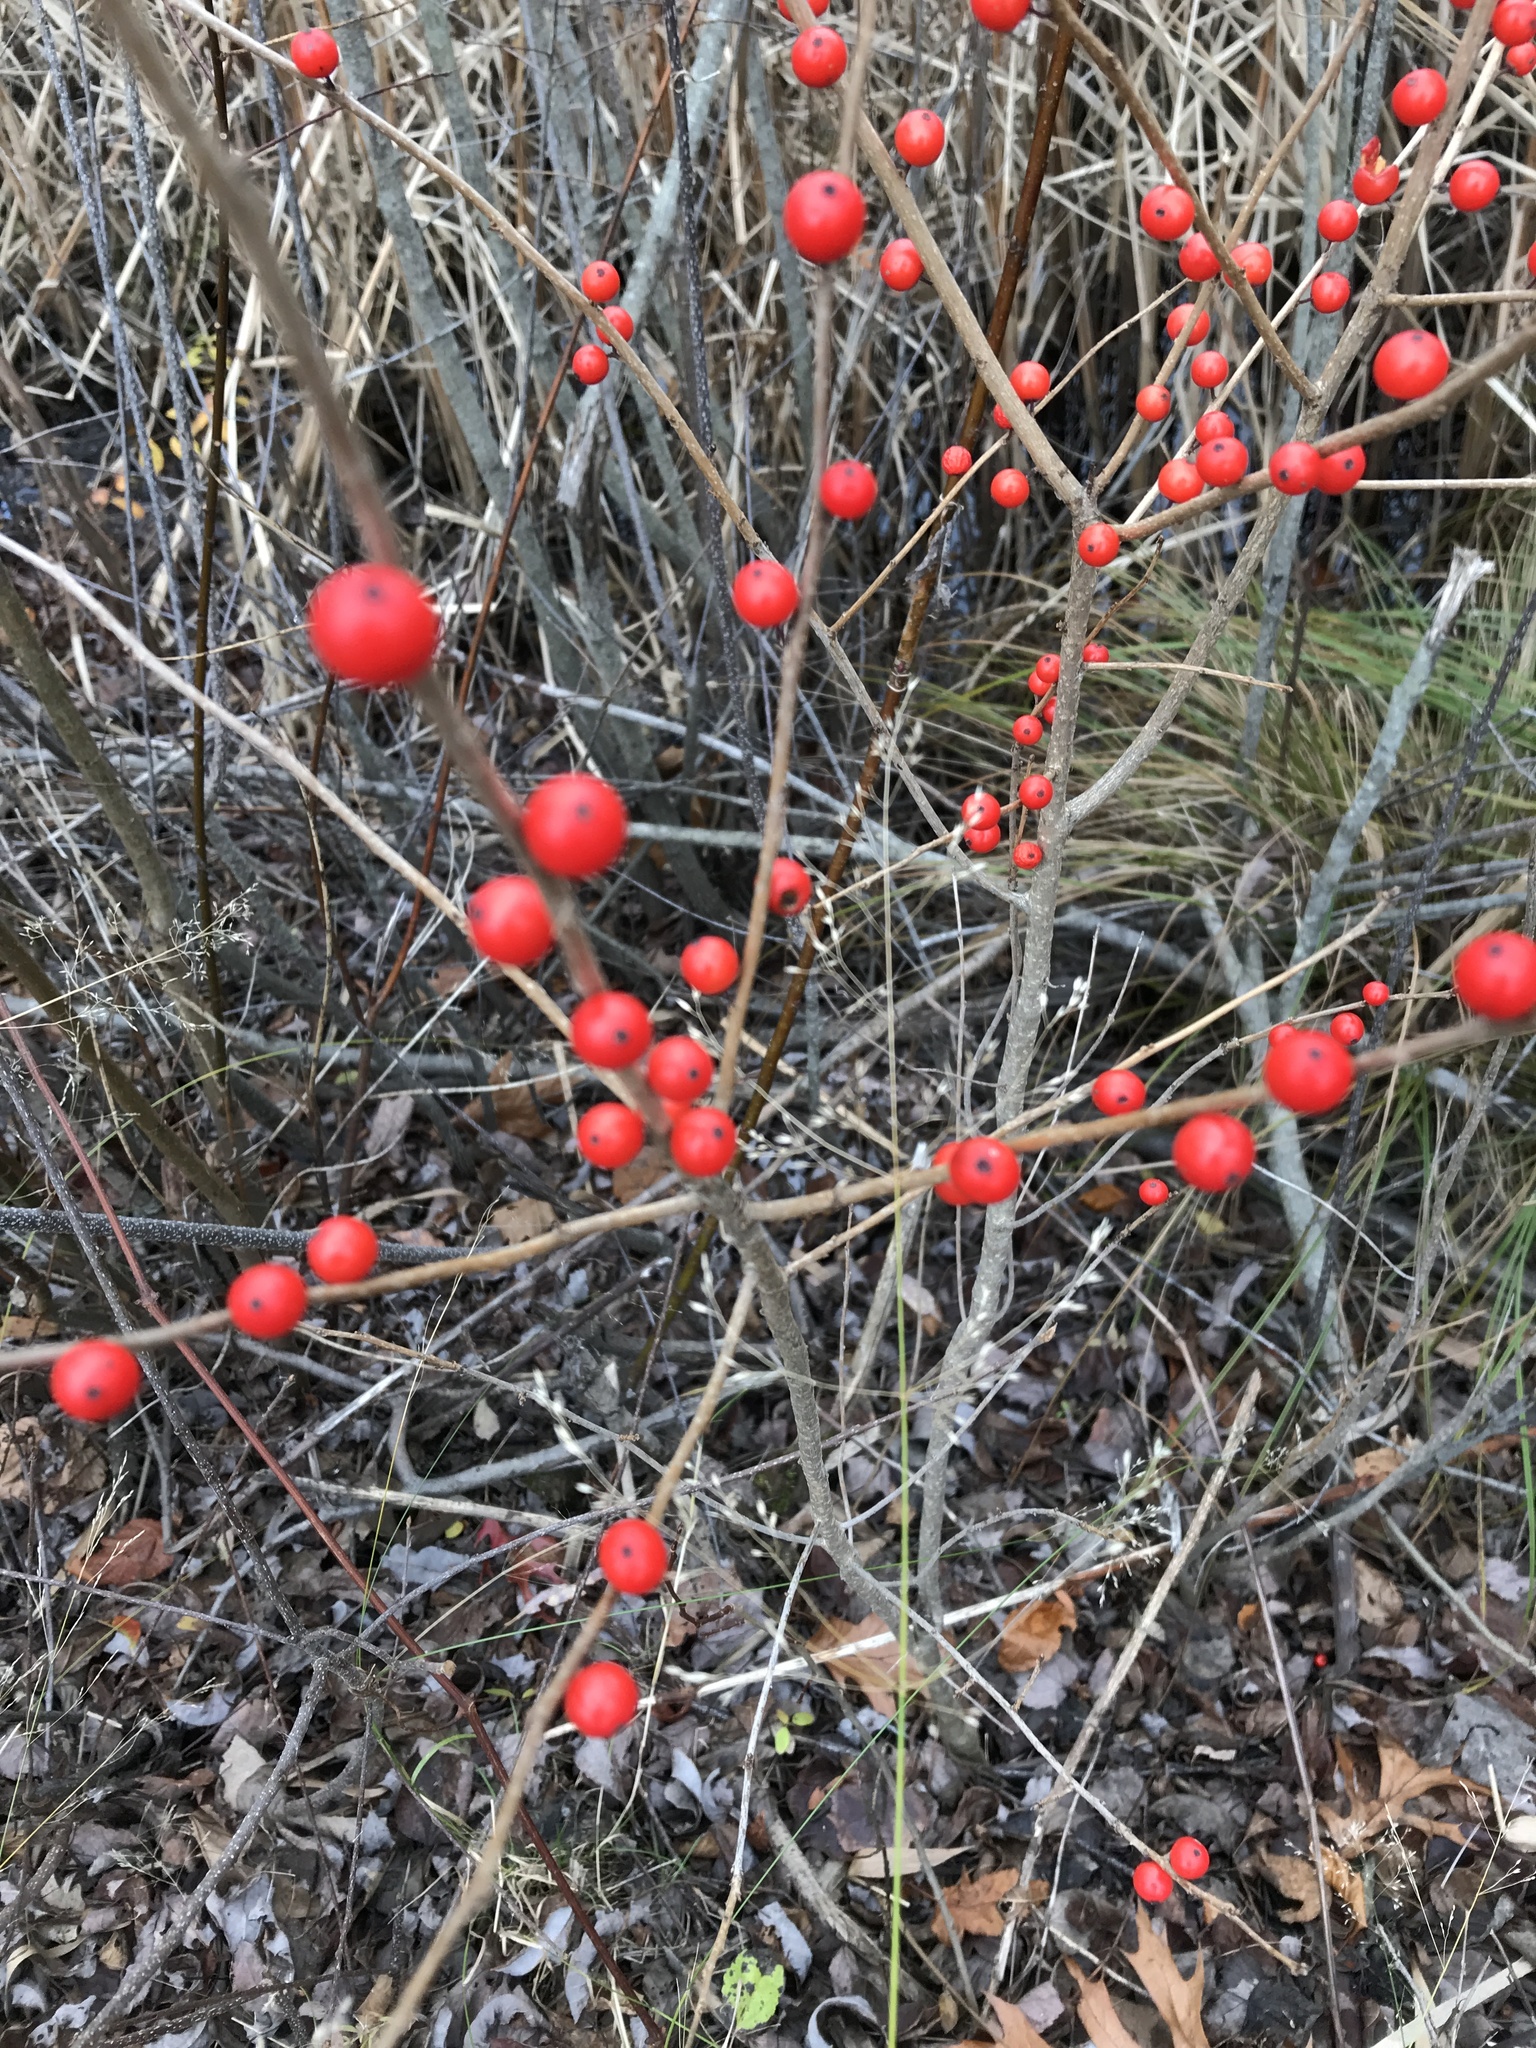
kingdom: Plantae
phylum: Tracheophyta
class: Magnoliopsida
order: Aquifoliales
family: Aquifoliaceae
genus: Ilex
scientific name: Ilex verticillata
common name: Virginia winterberry
